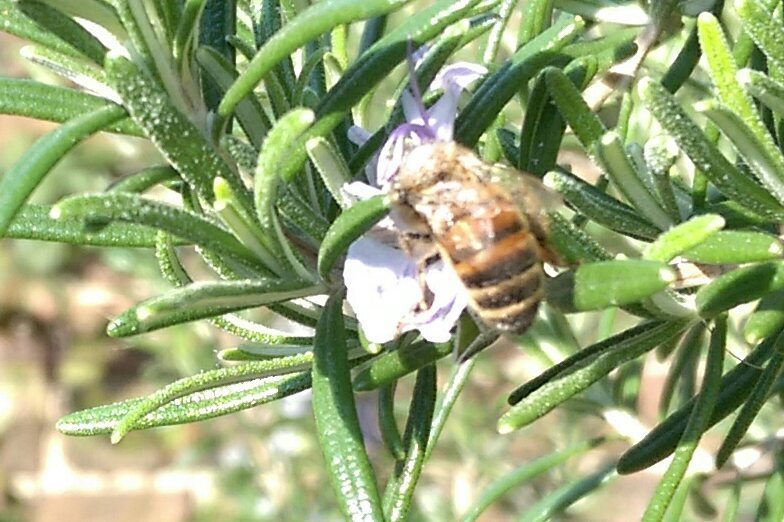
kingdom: Animalia
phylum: Arthropoda
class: Insecta
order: Hymenoptera
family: Apidae
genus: Apis
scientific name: Apis mellifera
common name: Honey bee
